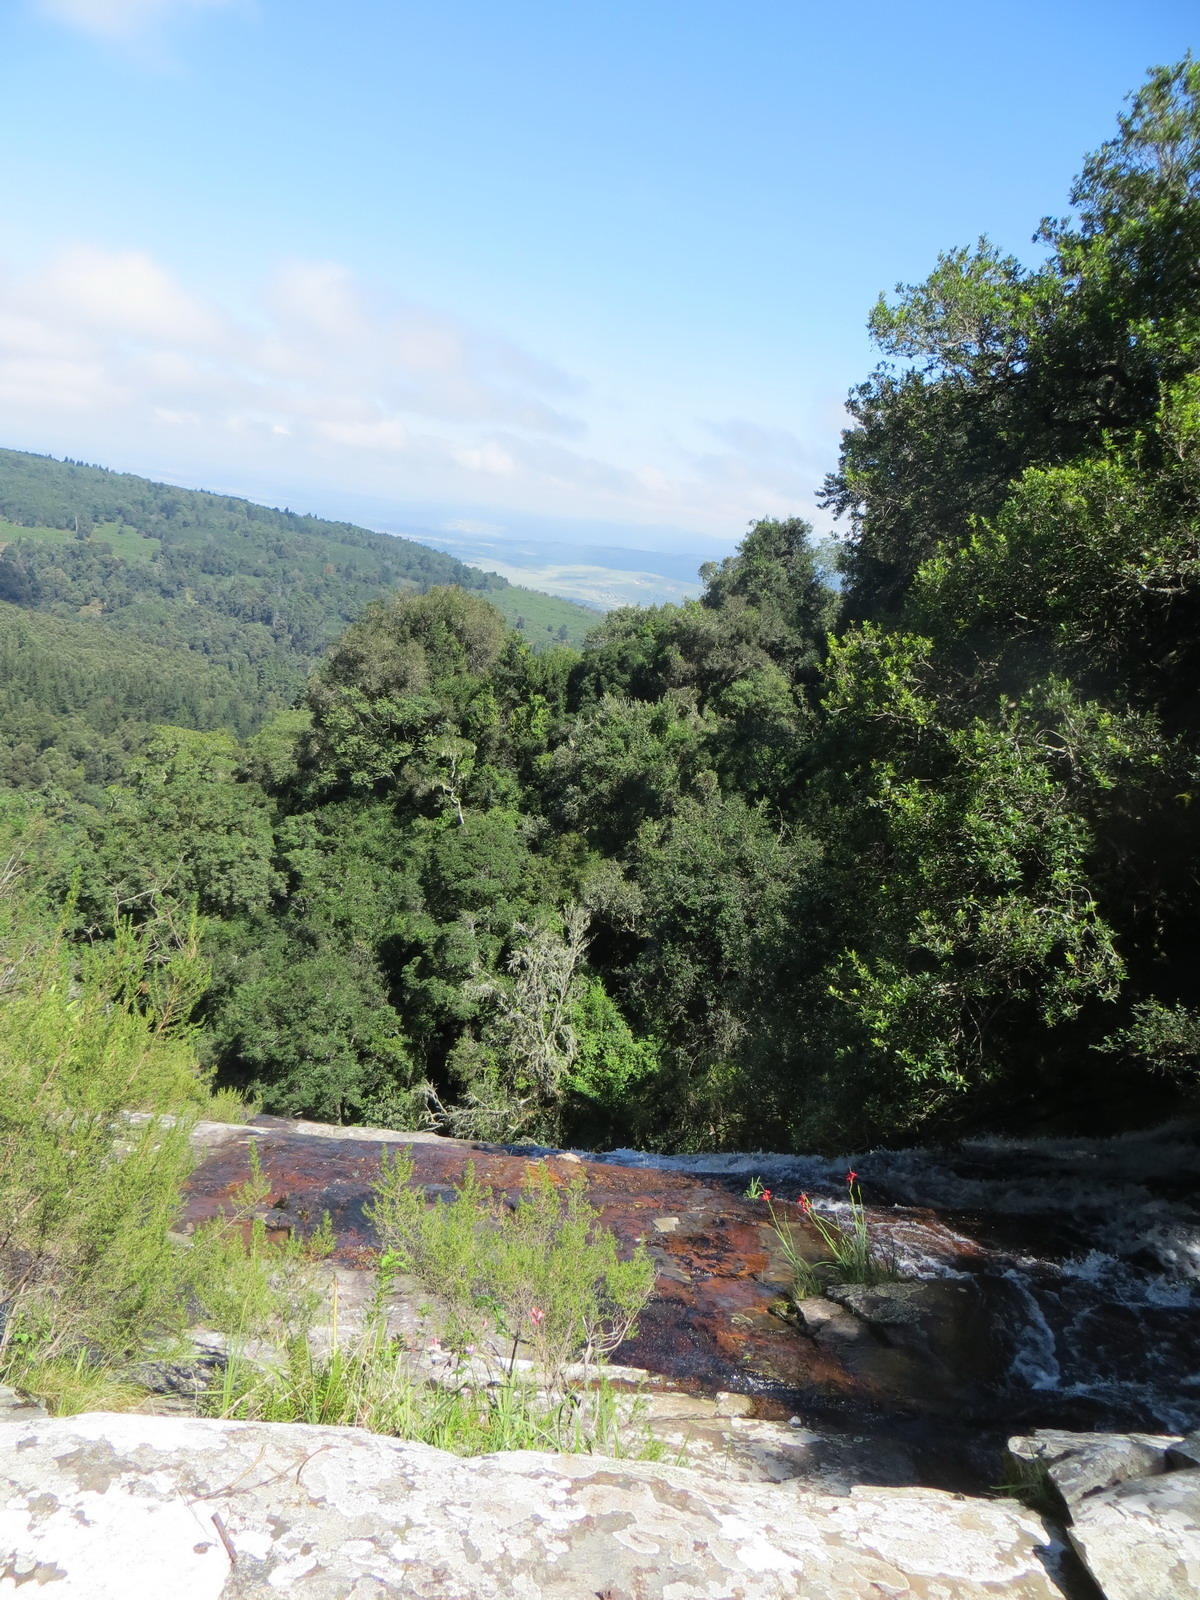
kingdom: Plantae
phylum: Tracheophyta
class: Liliopsida
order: Asparagales
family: Iridaceae
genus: Hesperantha
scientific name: Hesperantha coccinea
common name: River-lily
